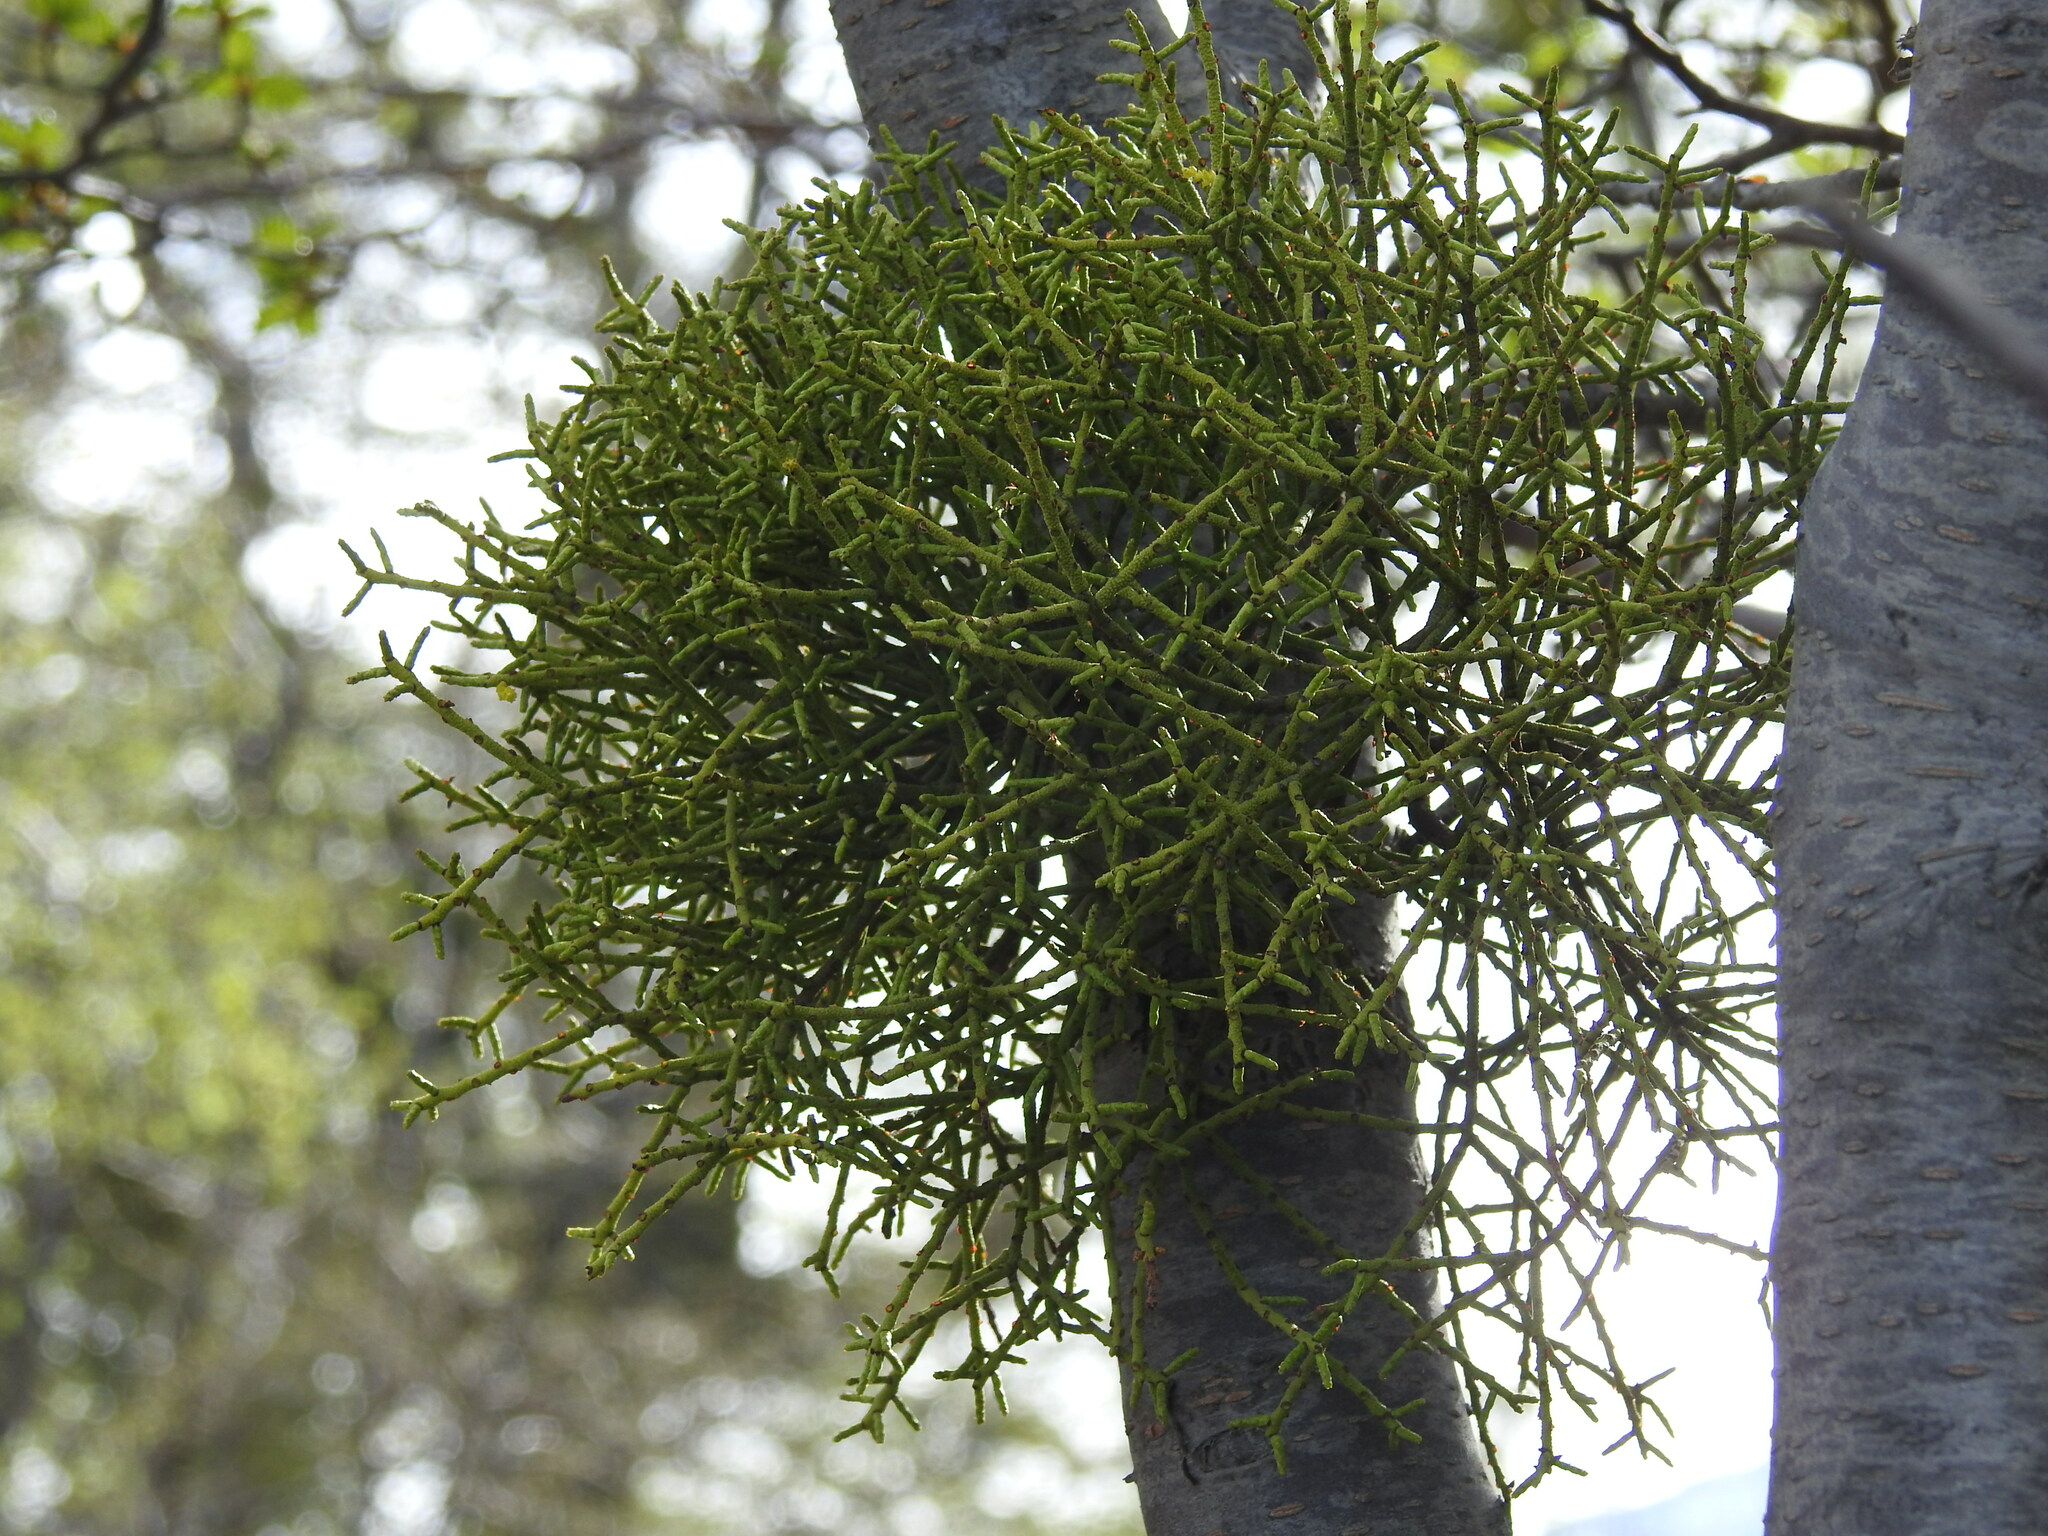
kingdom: Plantae
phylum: Tracheophyta
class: Magnoliopsida
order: Santalales
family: Misodendraceae
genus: Misodendrum
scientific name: Misodendrum punctulatum
